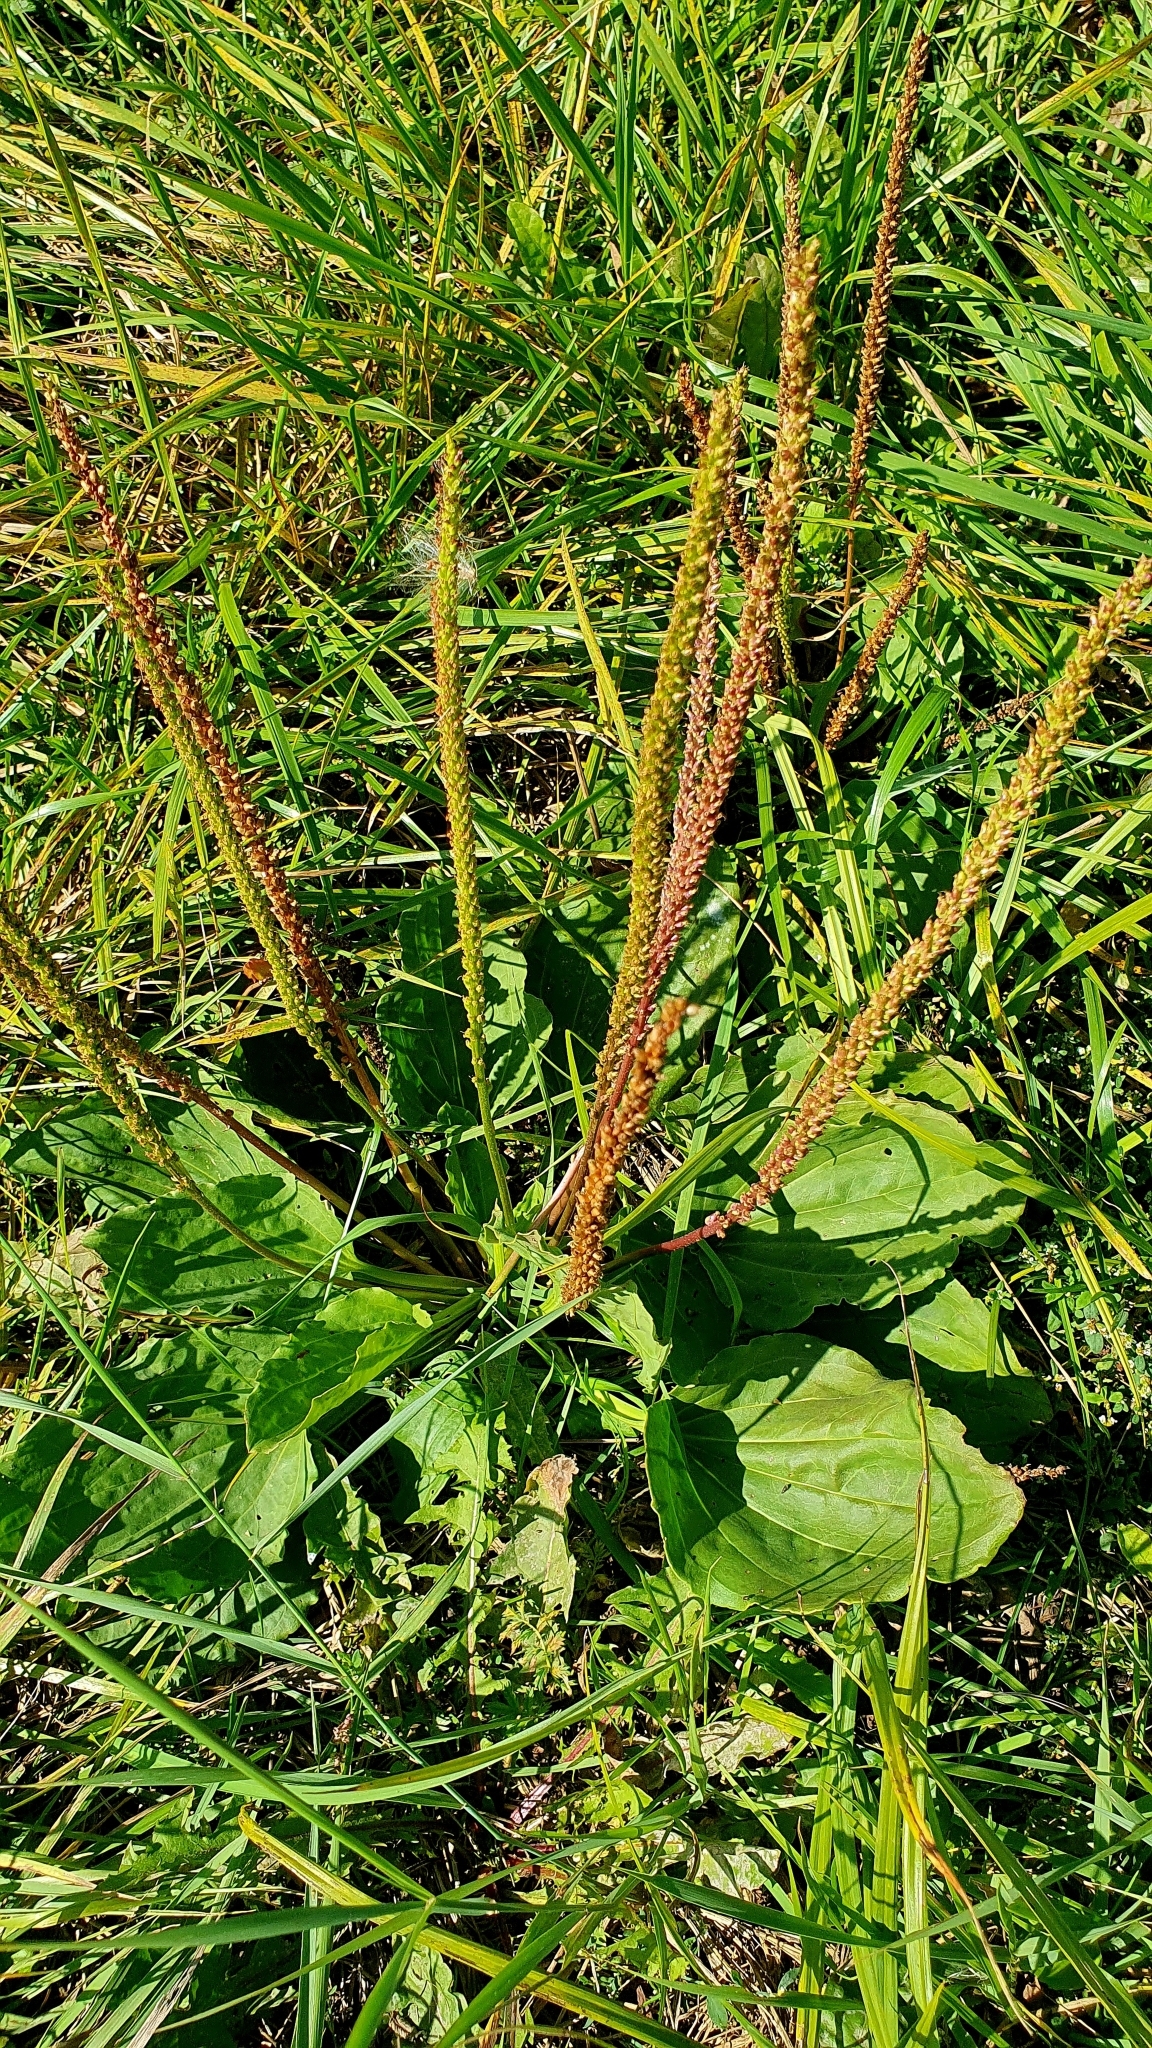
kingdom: Plantae
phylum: Tracheophyta
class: Magnoliopsida
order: Lamiales
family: Plantaginaceae
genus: Plantago
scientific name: Plantago major
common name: Common plantain
